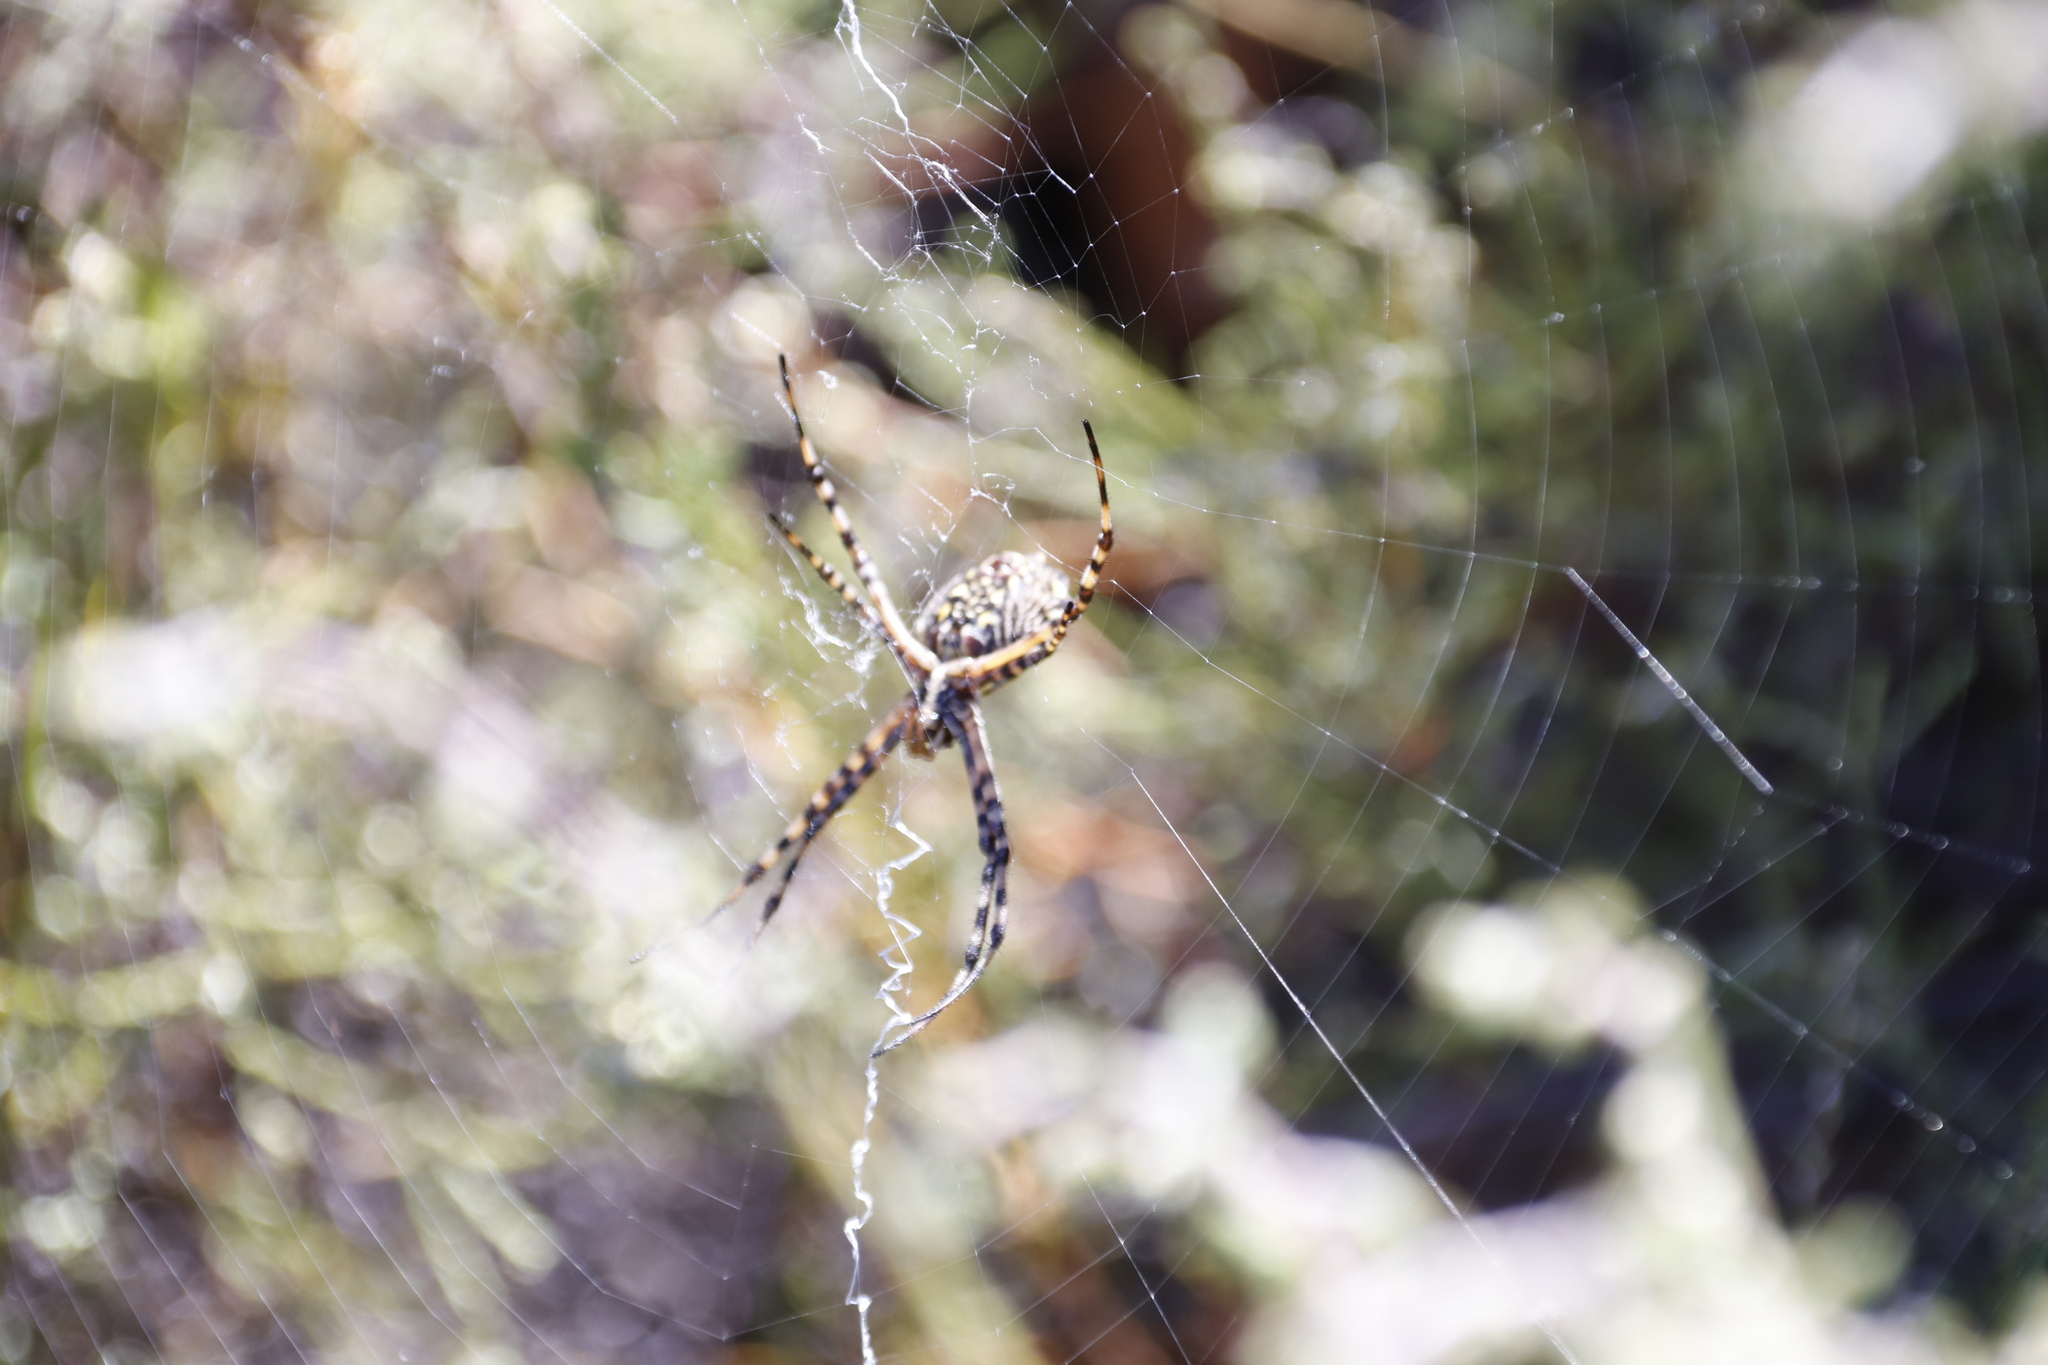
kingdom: Animalia
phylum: Arthropoda
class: Arachnida
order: Araneae
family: Araneidae
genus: Argiope
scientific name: Argiope australis
